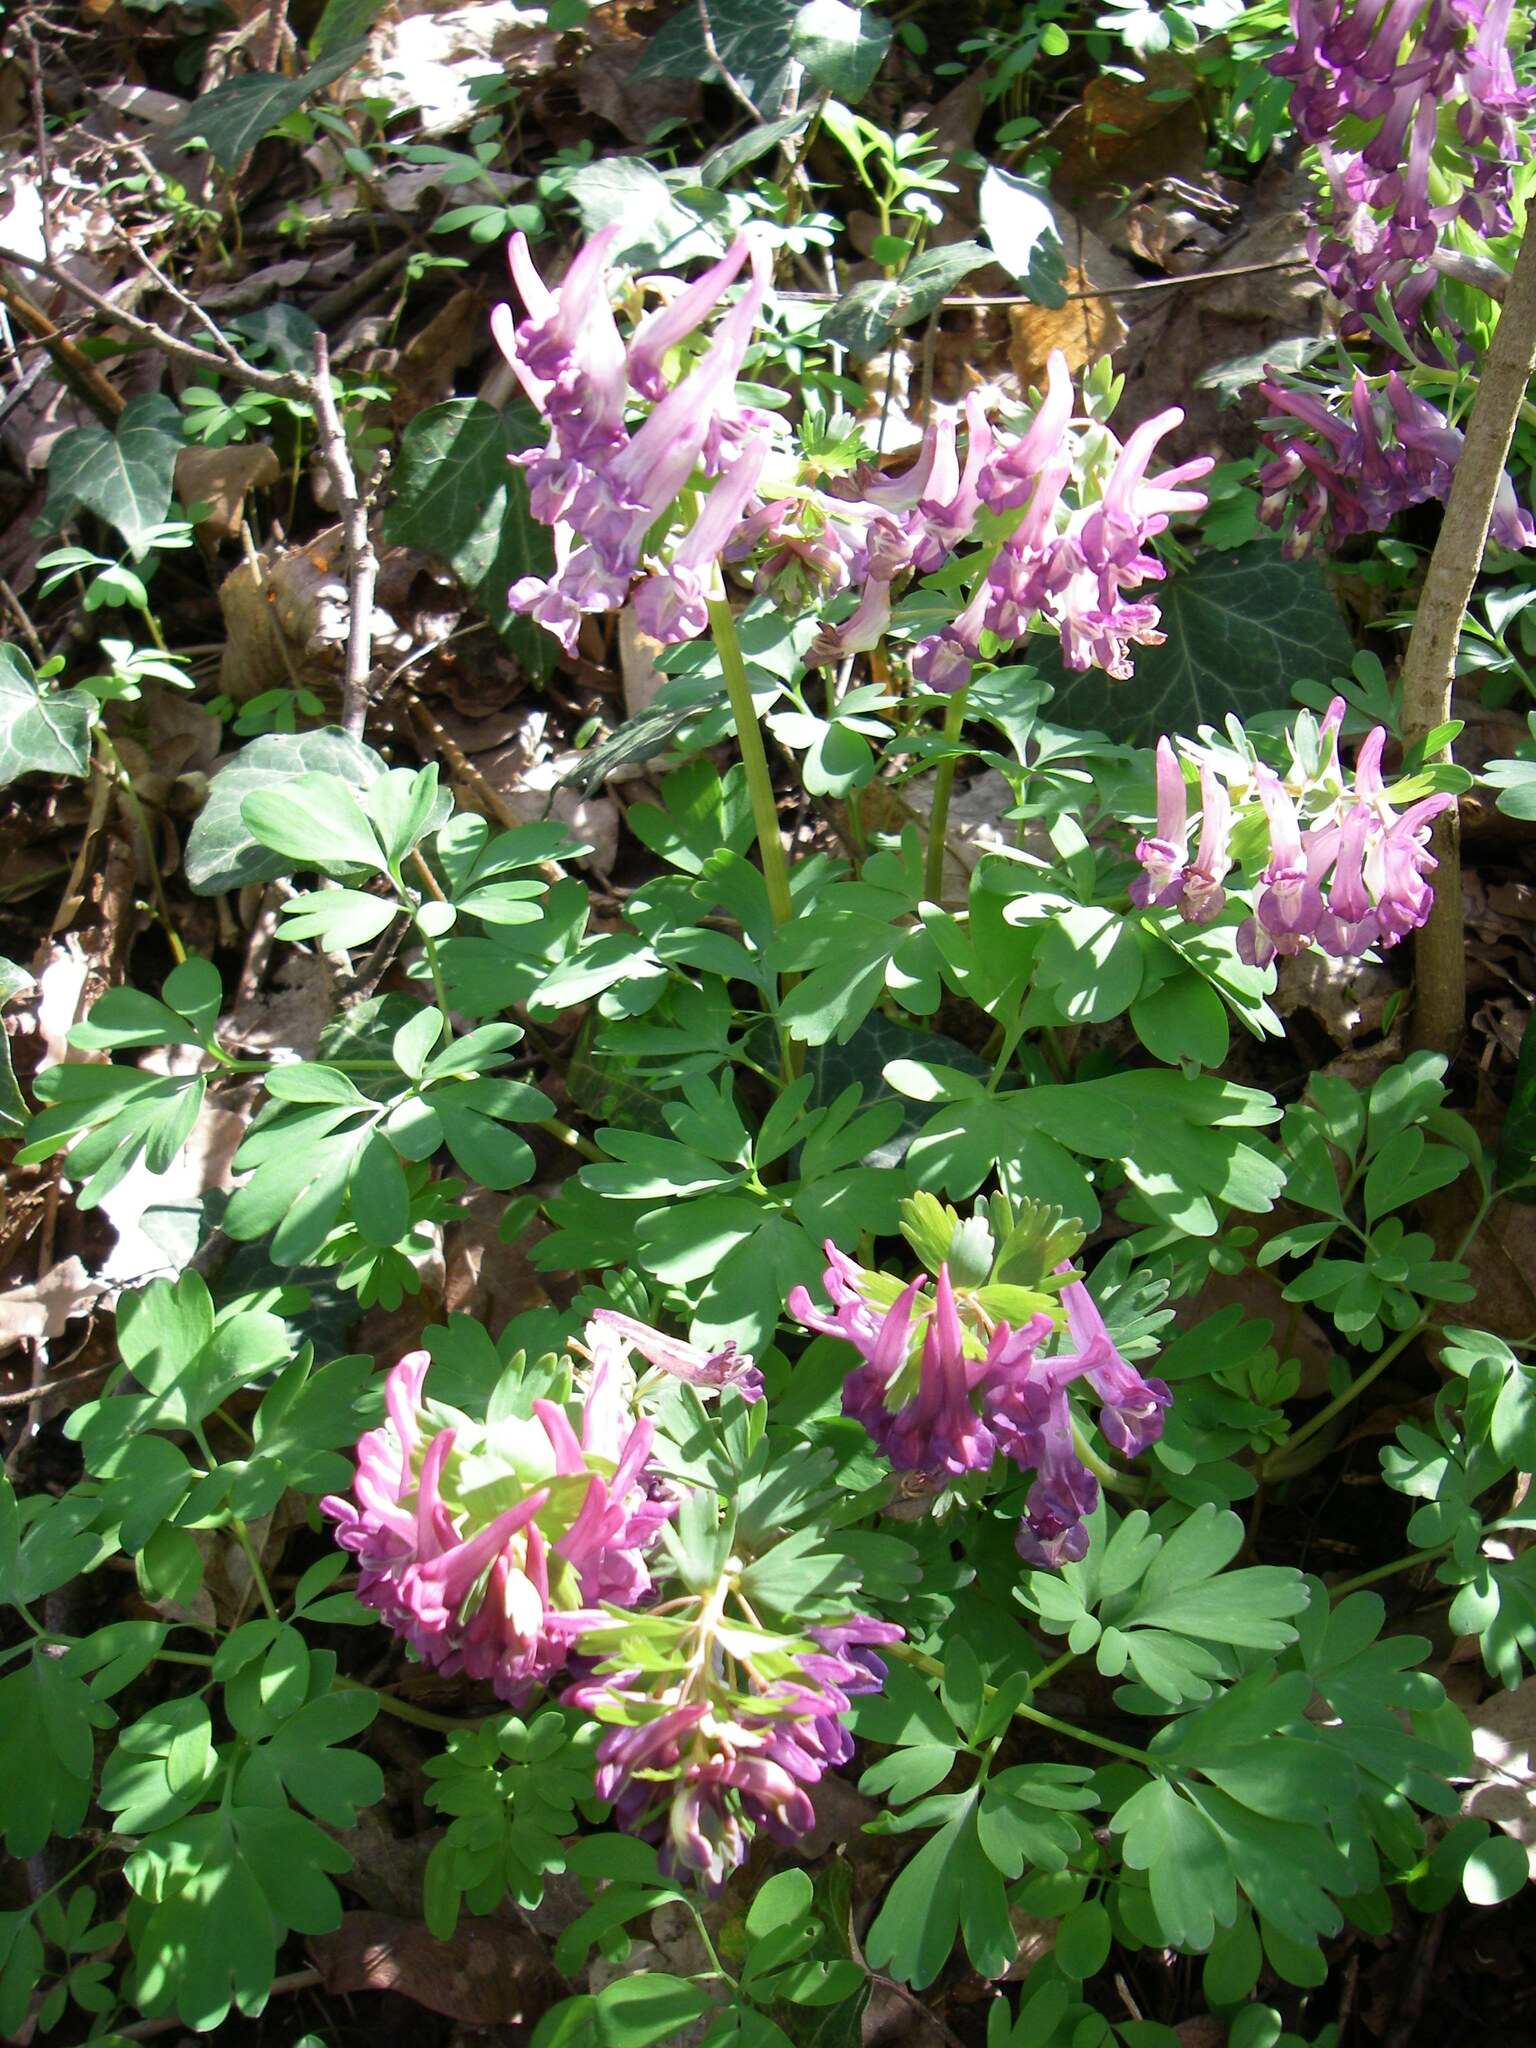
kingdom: Plantae
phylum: Tracheophyta
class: Magnoliopsida
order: Ranunculales
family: Papaveraceae
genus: Corydalis
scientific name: Corydalis solida
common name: Bird-in-a-bush
